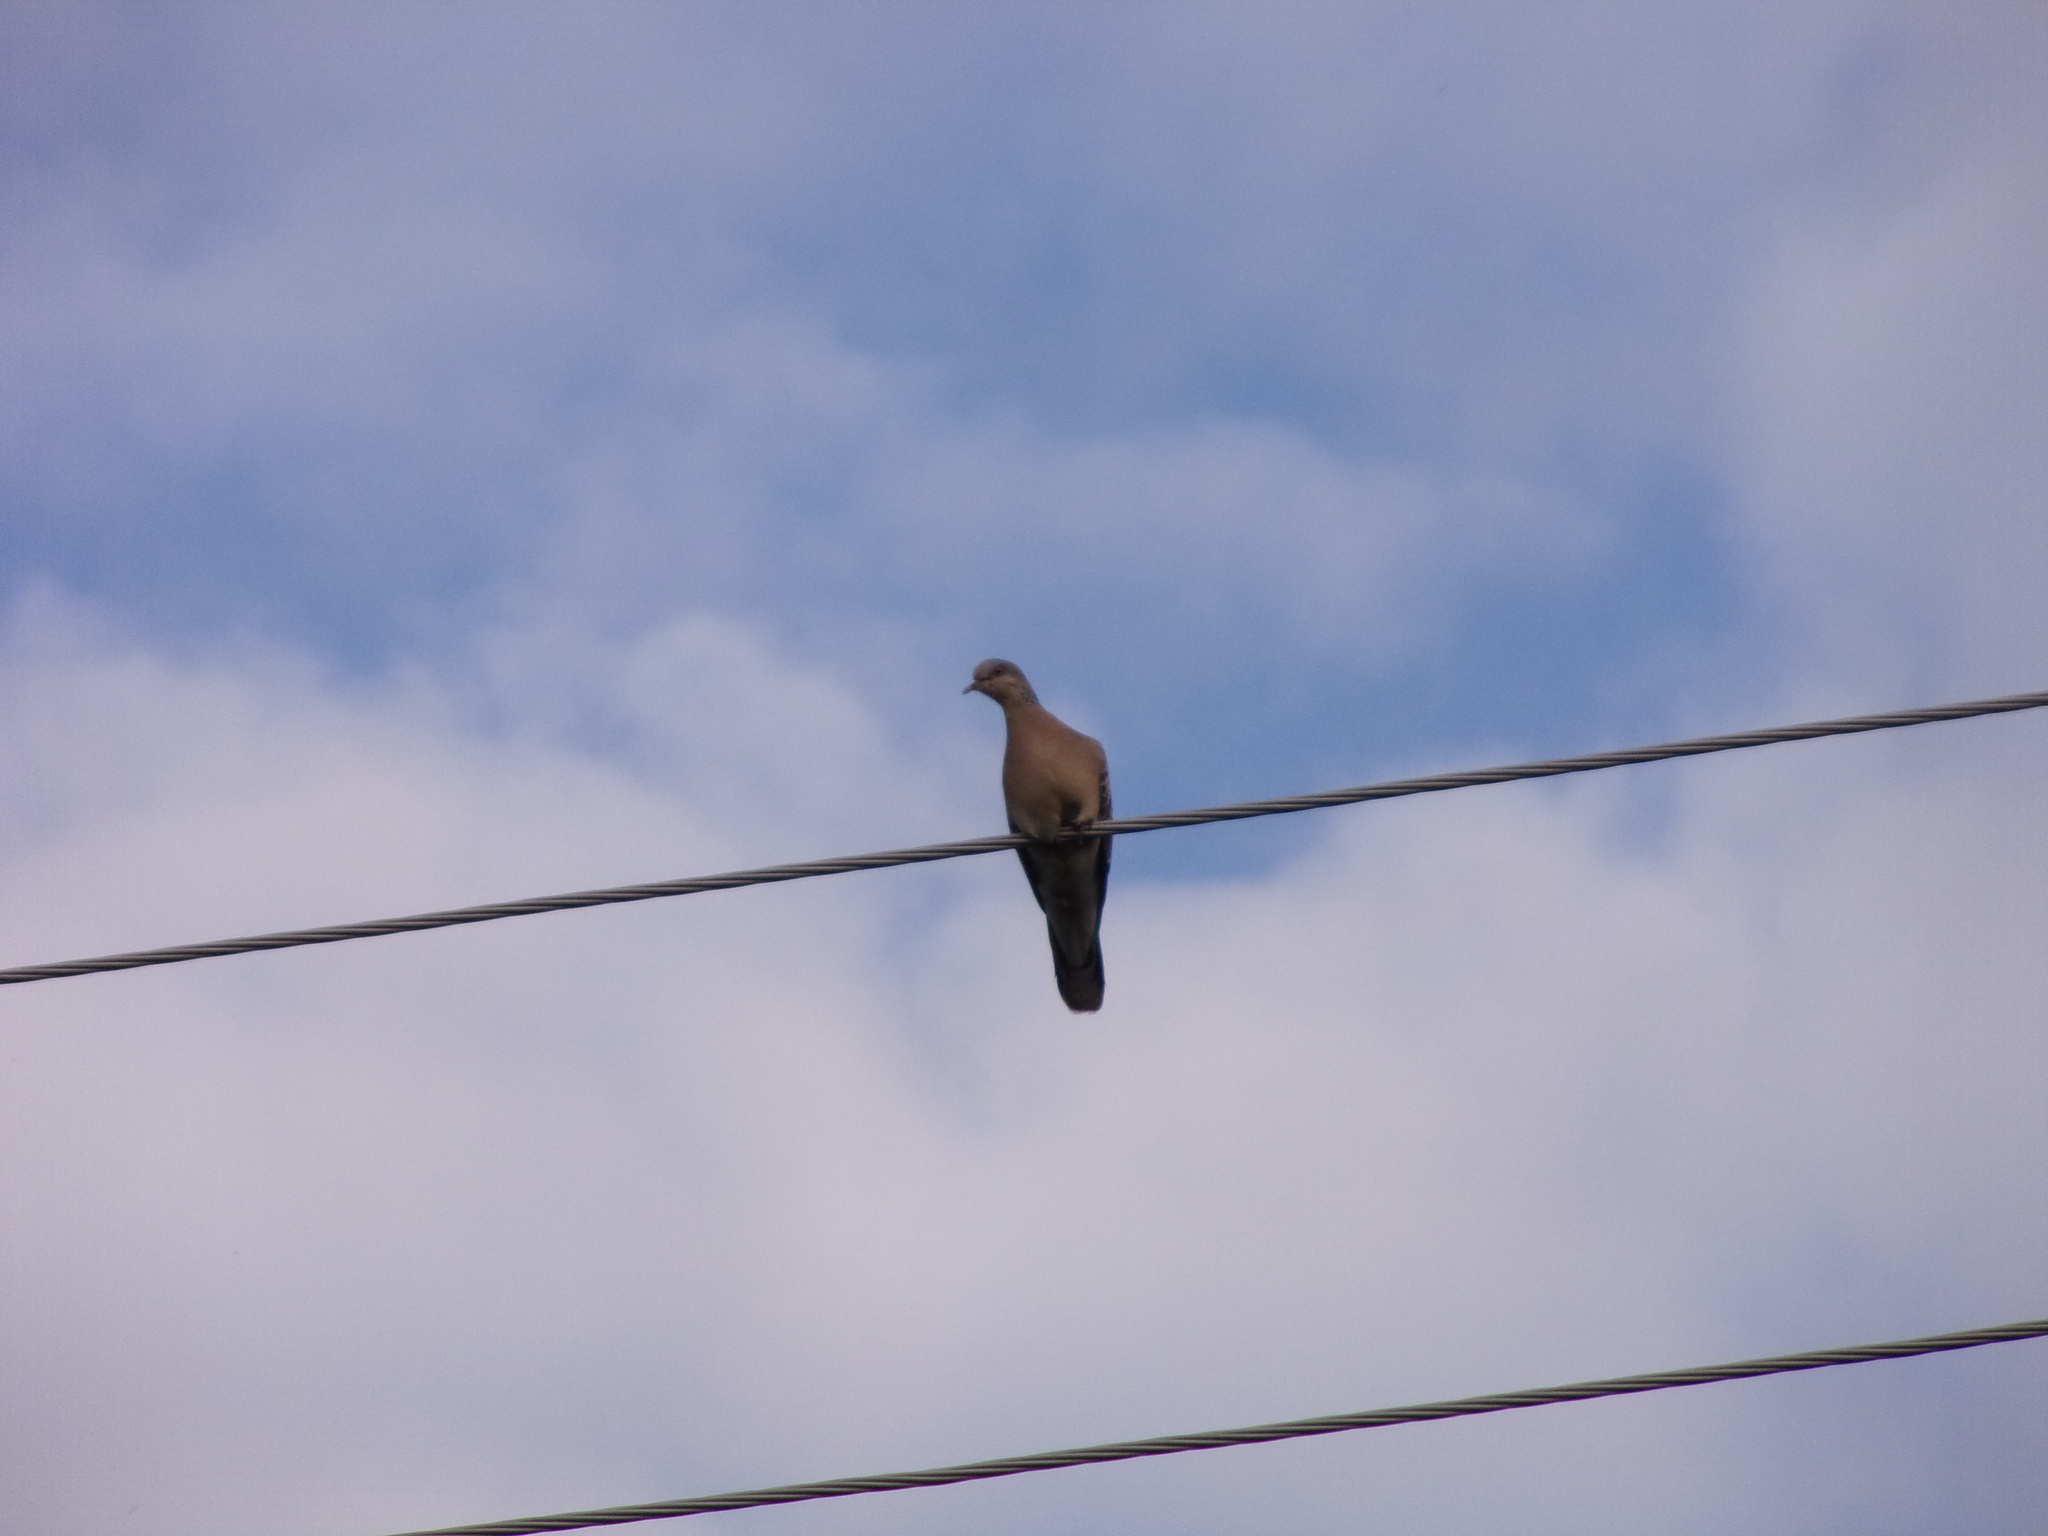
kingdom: Animalia
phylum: Chordata
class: Aves
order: Columbiformes
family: Columbidae
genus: Streptopelia
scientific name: Streptopelia orientalis
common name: Oriental turtle dove
